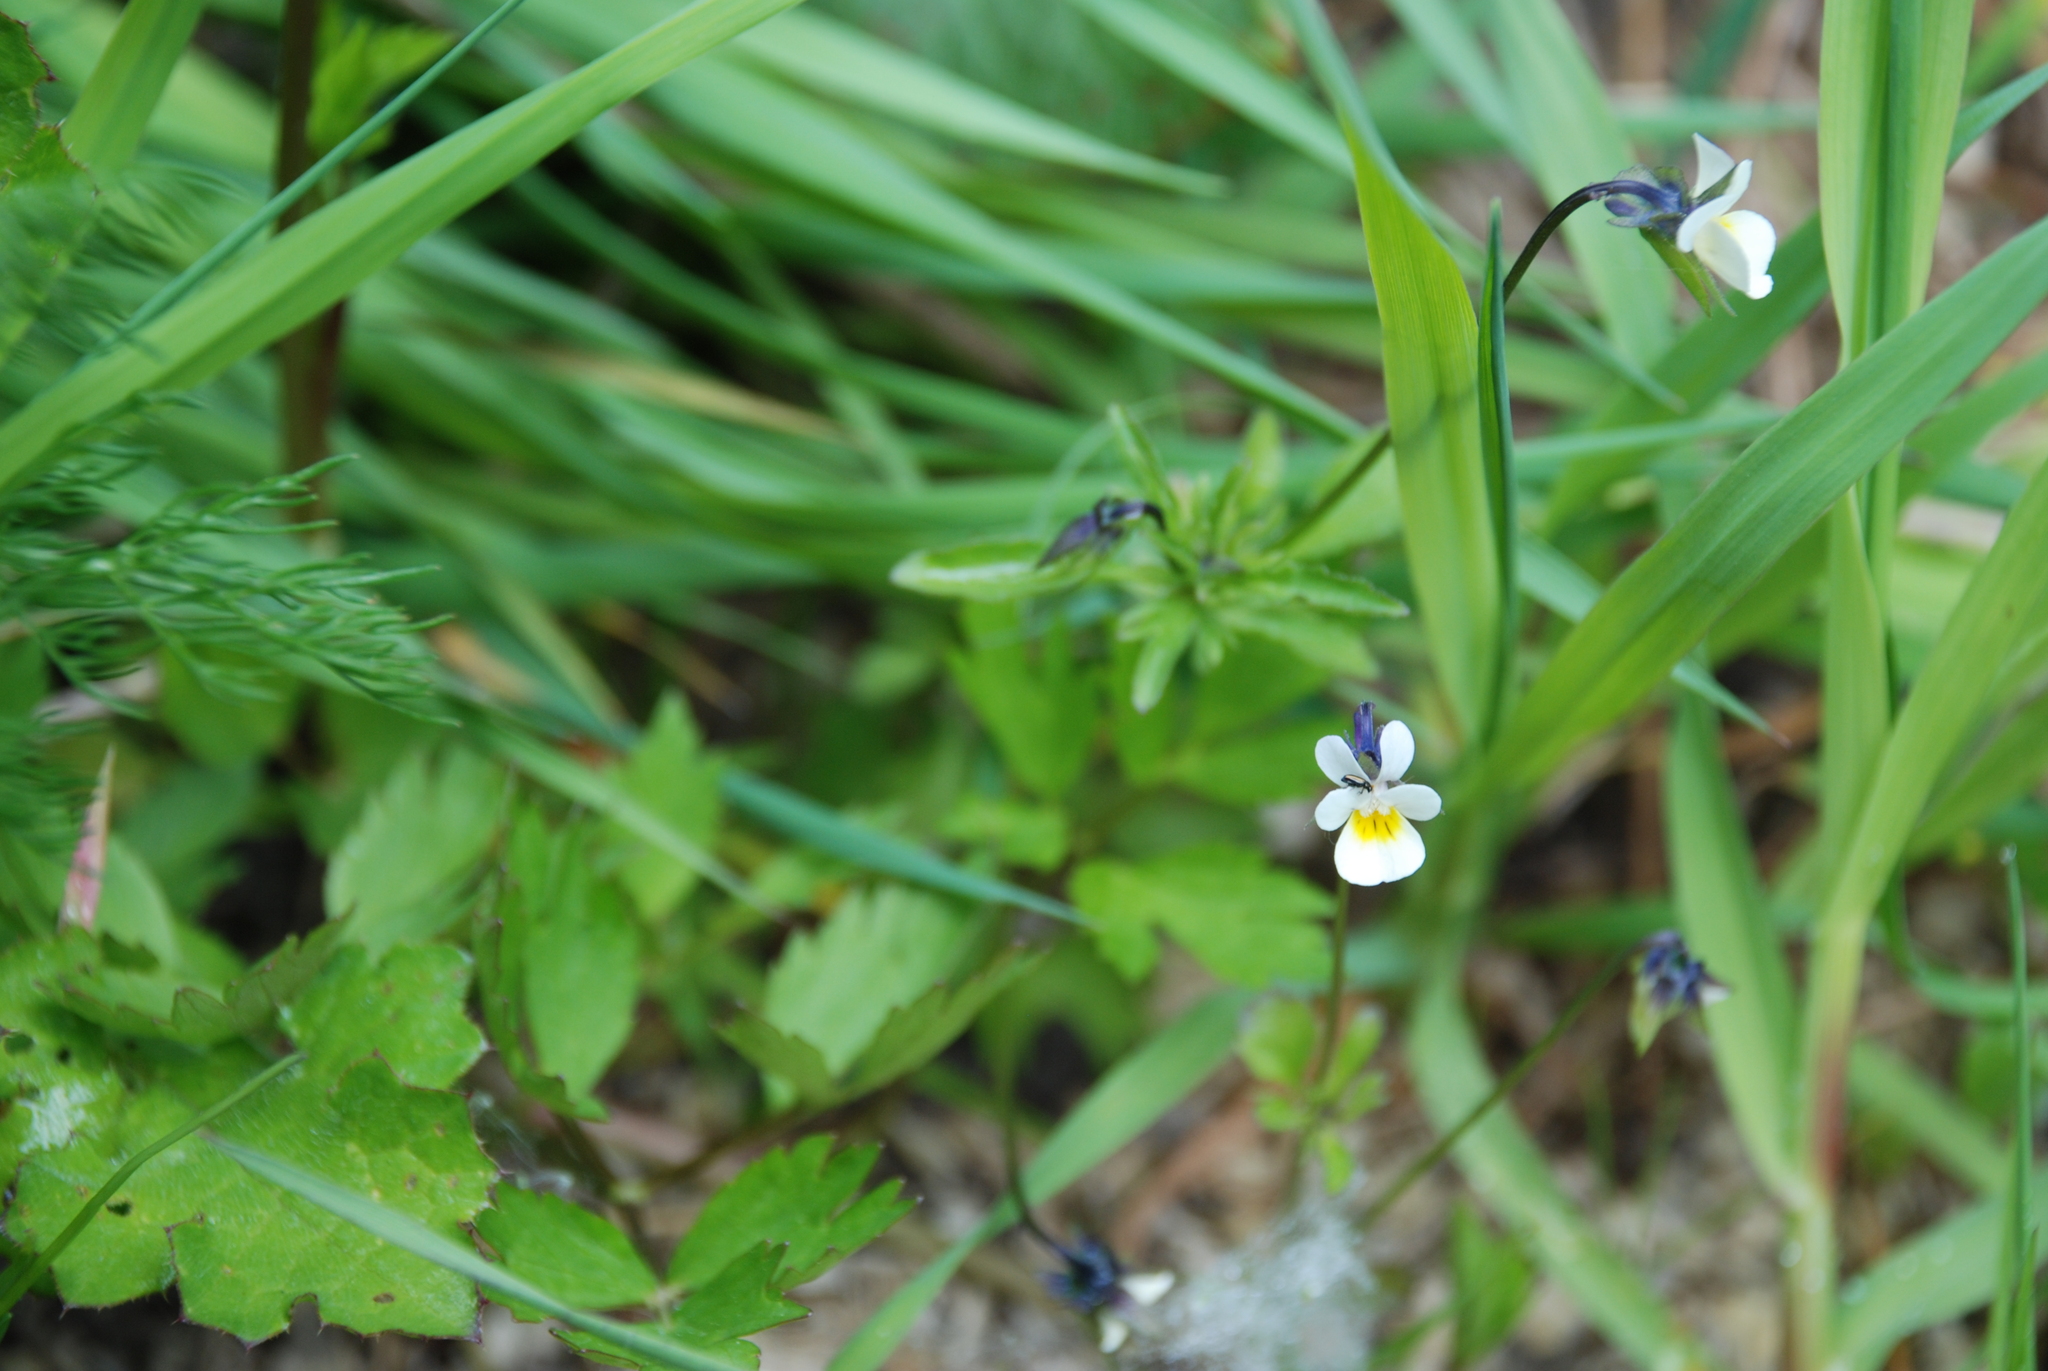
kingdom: Plantae
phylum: Tracheophyta
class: Magnoliopsida
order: Malpighiales
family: Violaceae
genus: Viola
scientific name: Viola arvensis
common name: Field pansy
